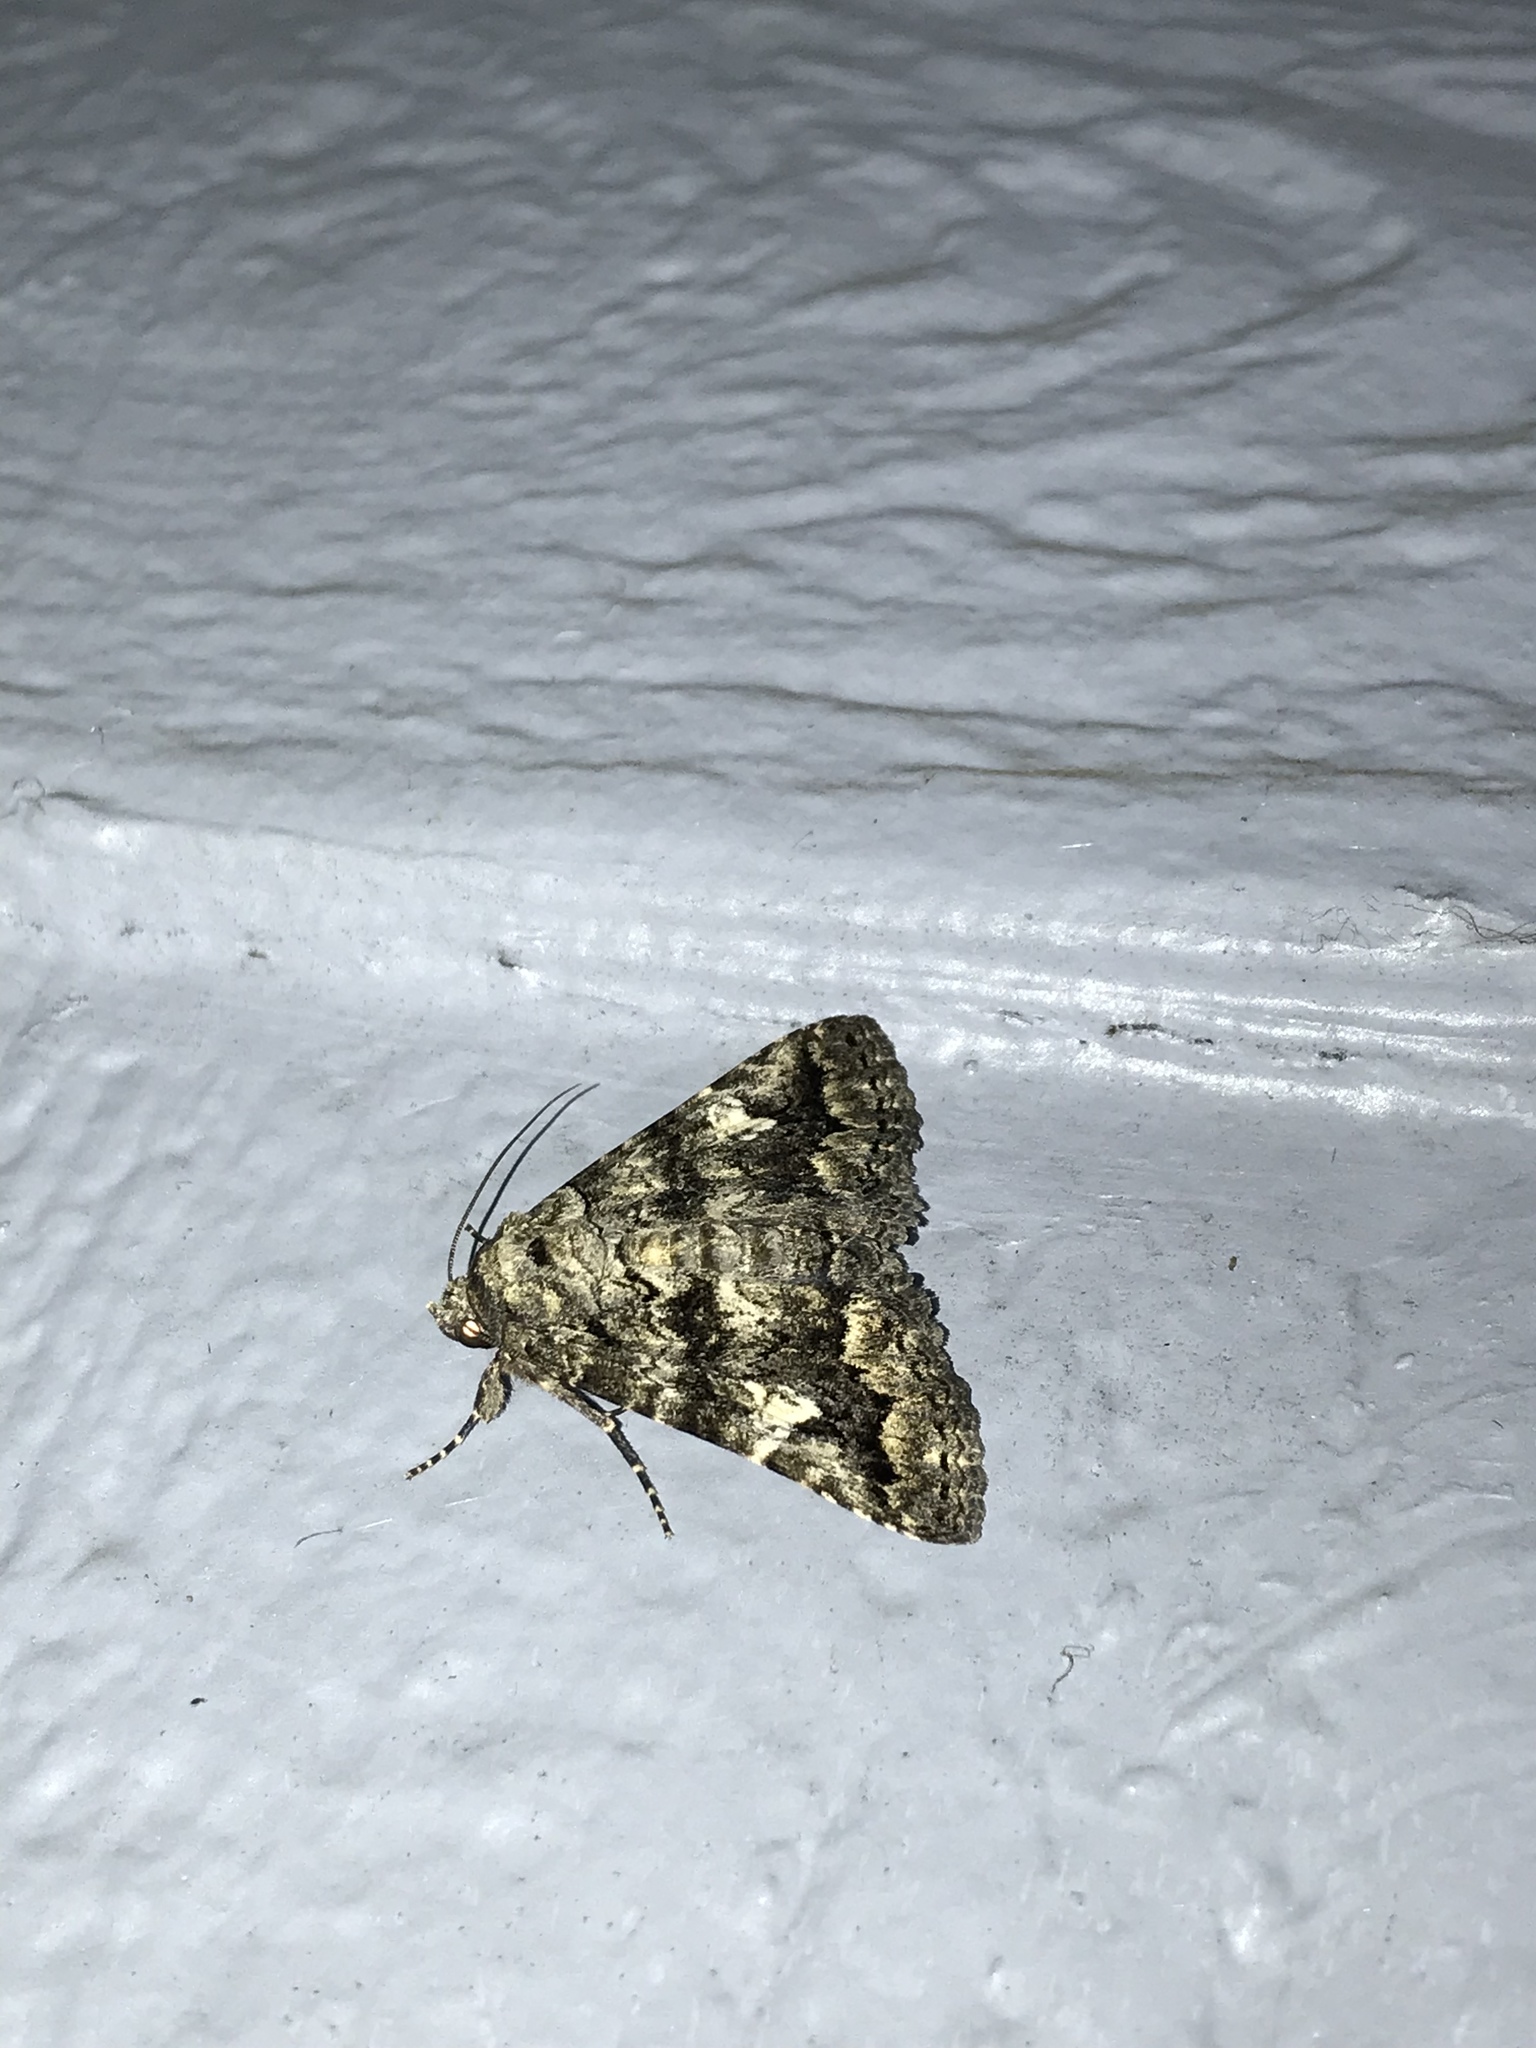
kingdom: Animalia
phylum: Arthropoda
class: Insecta
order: Lepidoptera
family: Erebidae
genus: Metria
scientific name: Metria amella
